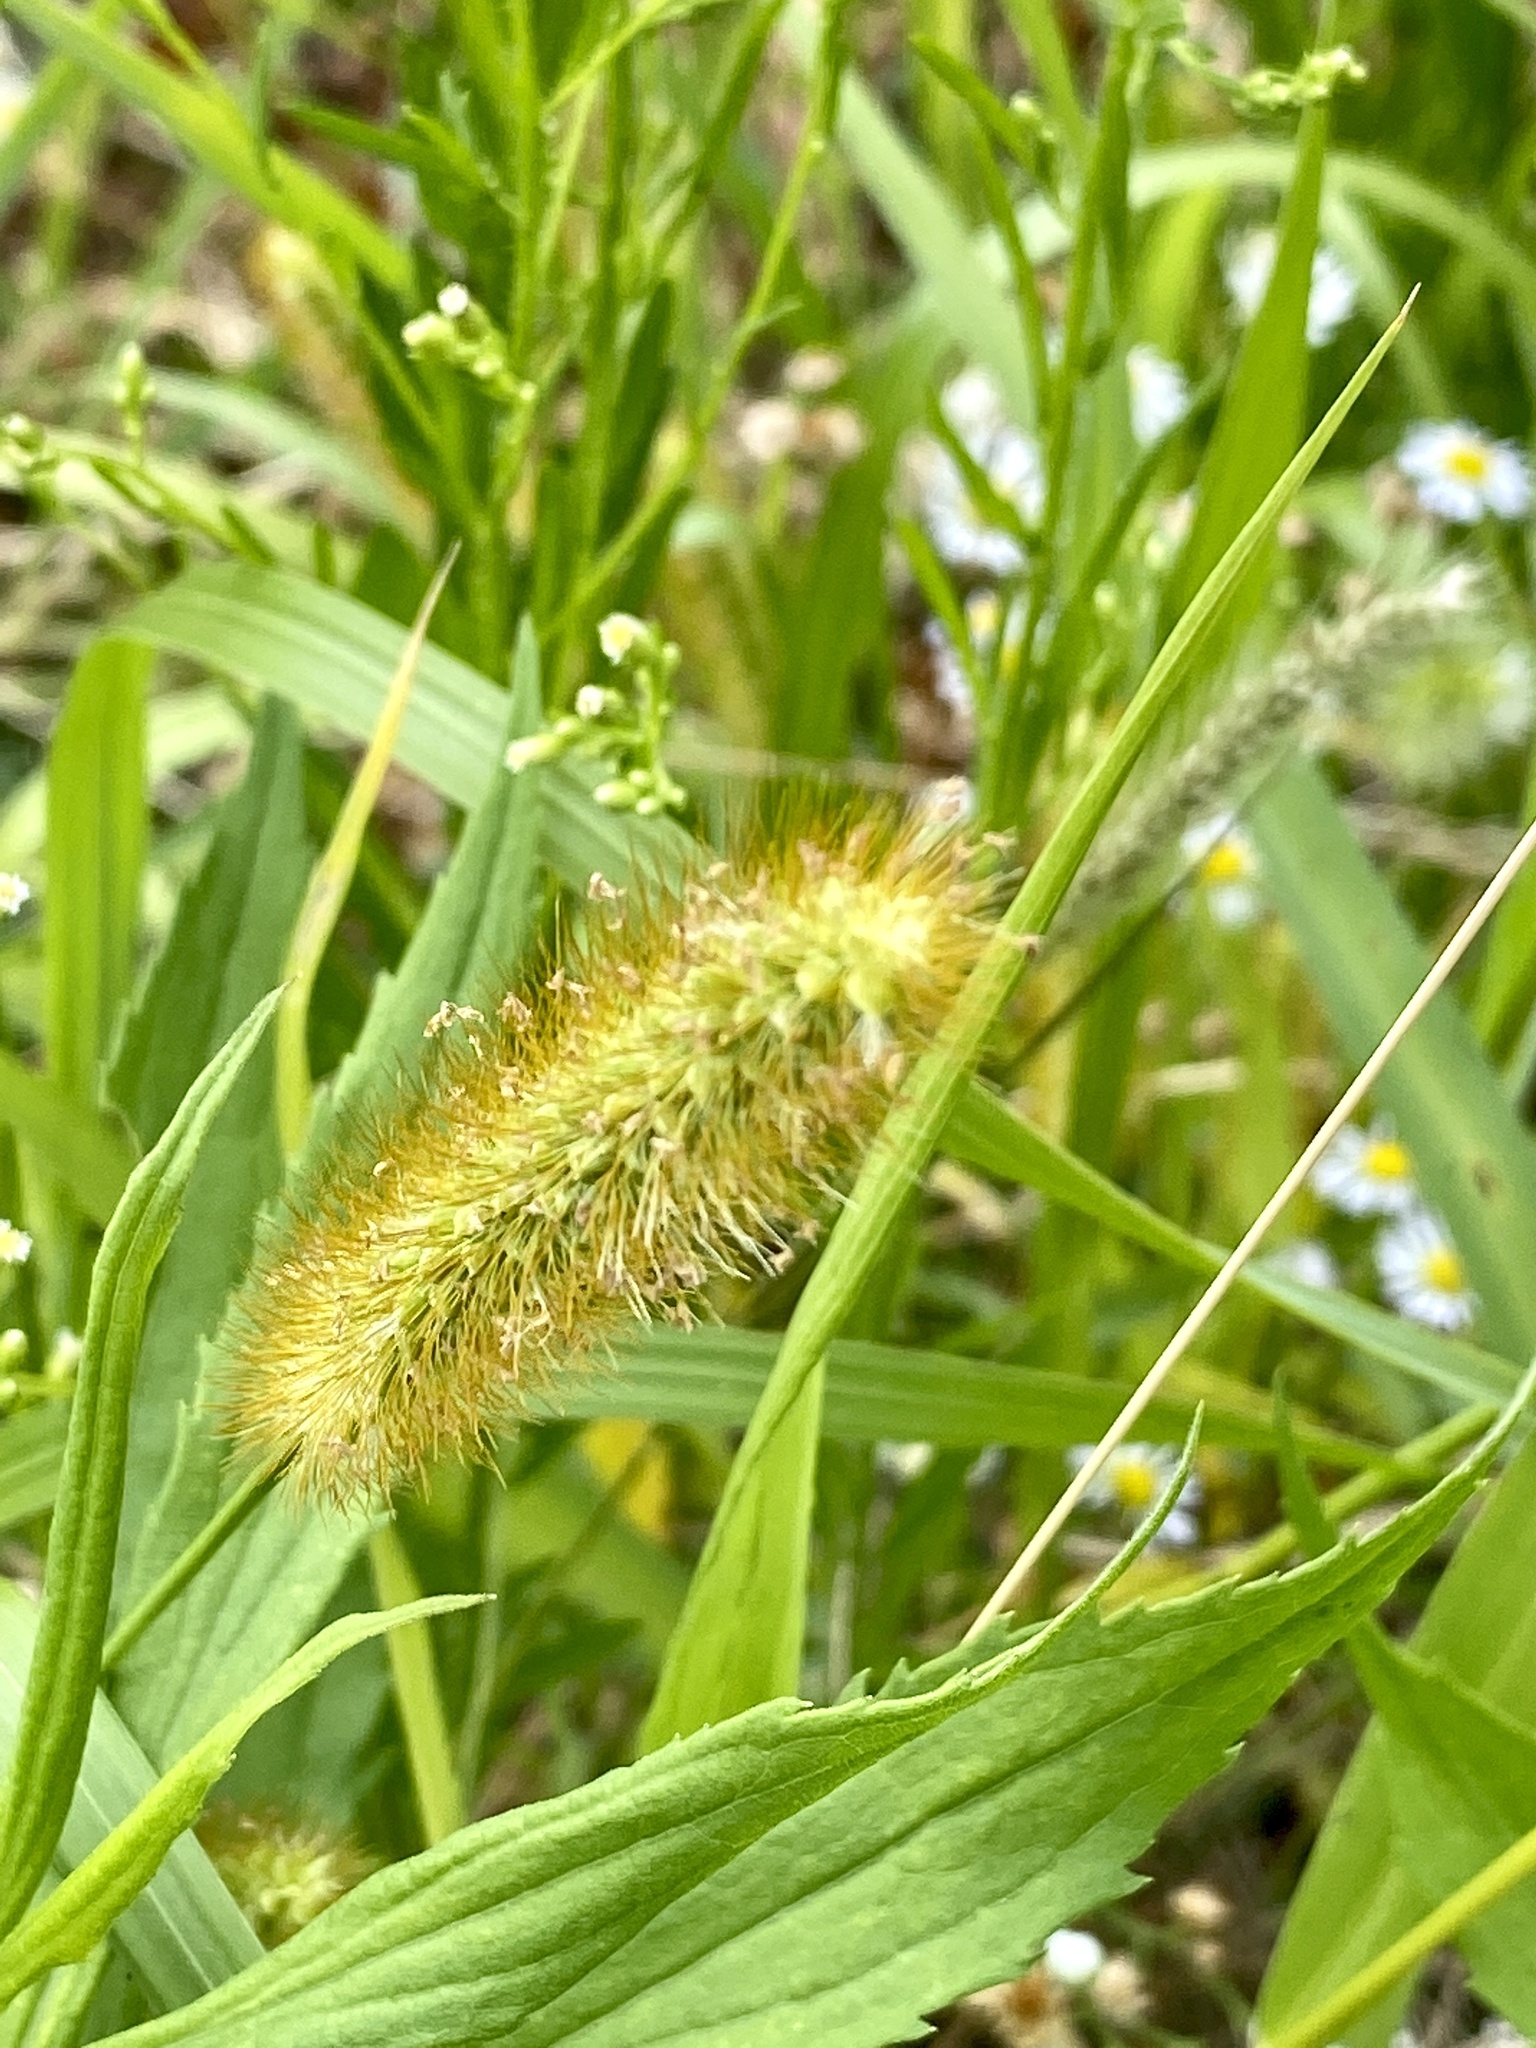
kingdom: Plantae
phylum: Tracheophyta
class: Liliopsida
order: Poales
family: Poaceae
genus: Setaria
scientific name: Setaria pumila
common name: Yellow bristle-grass
